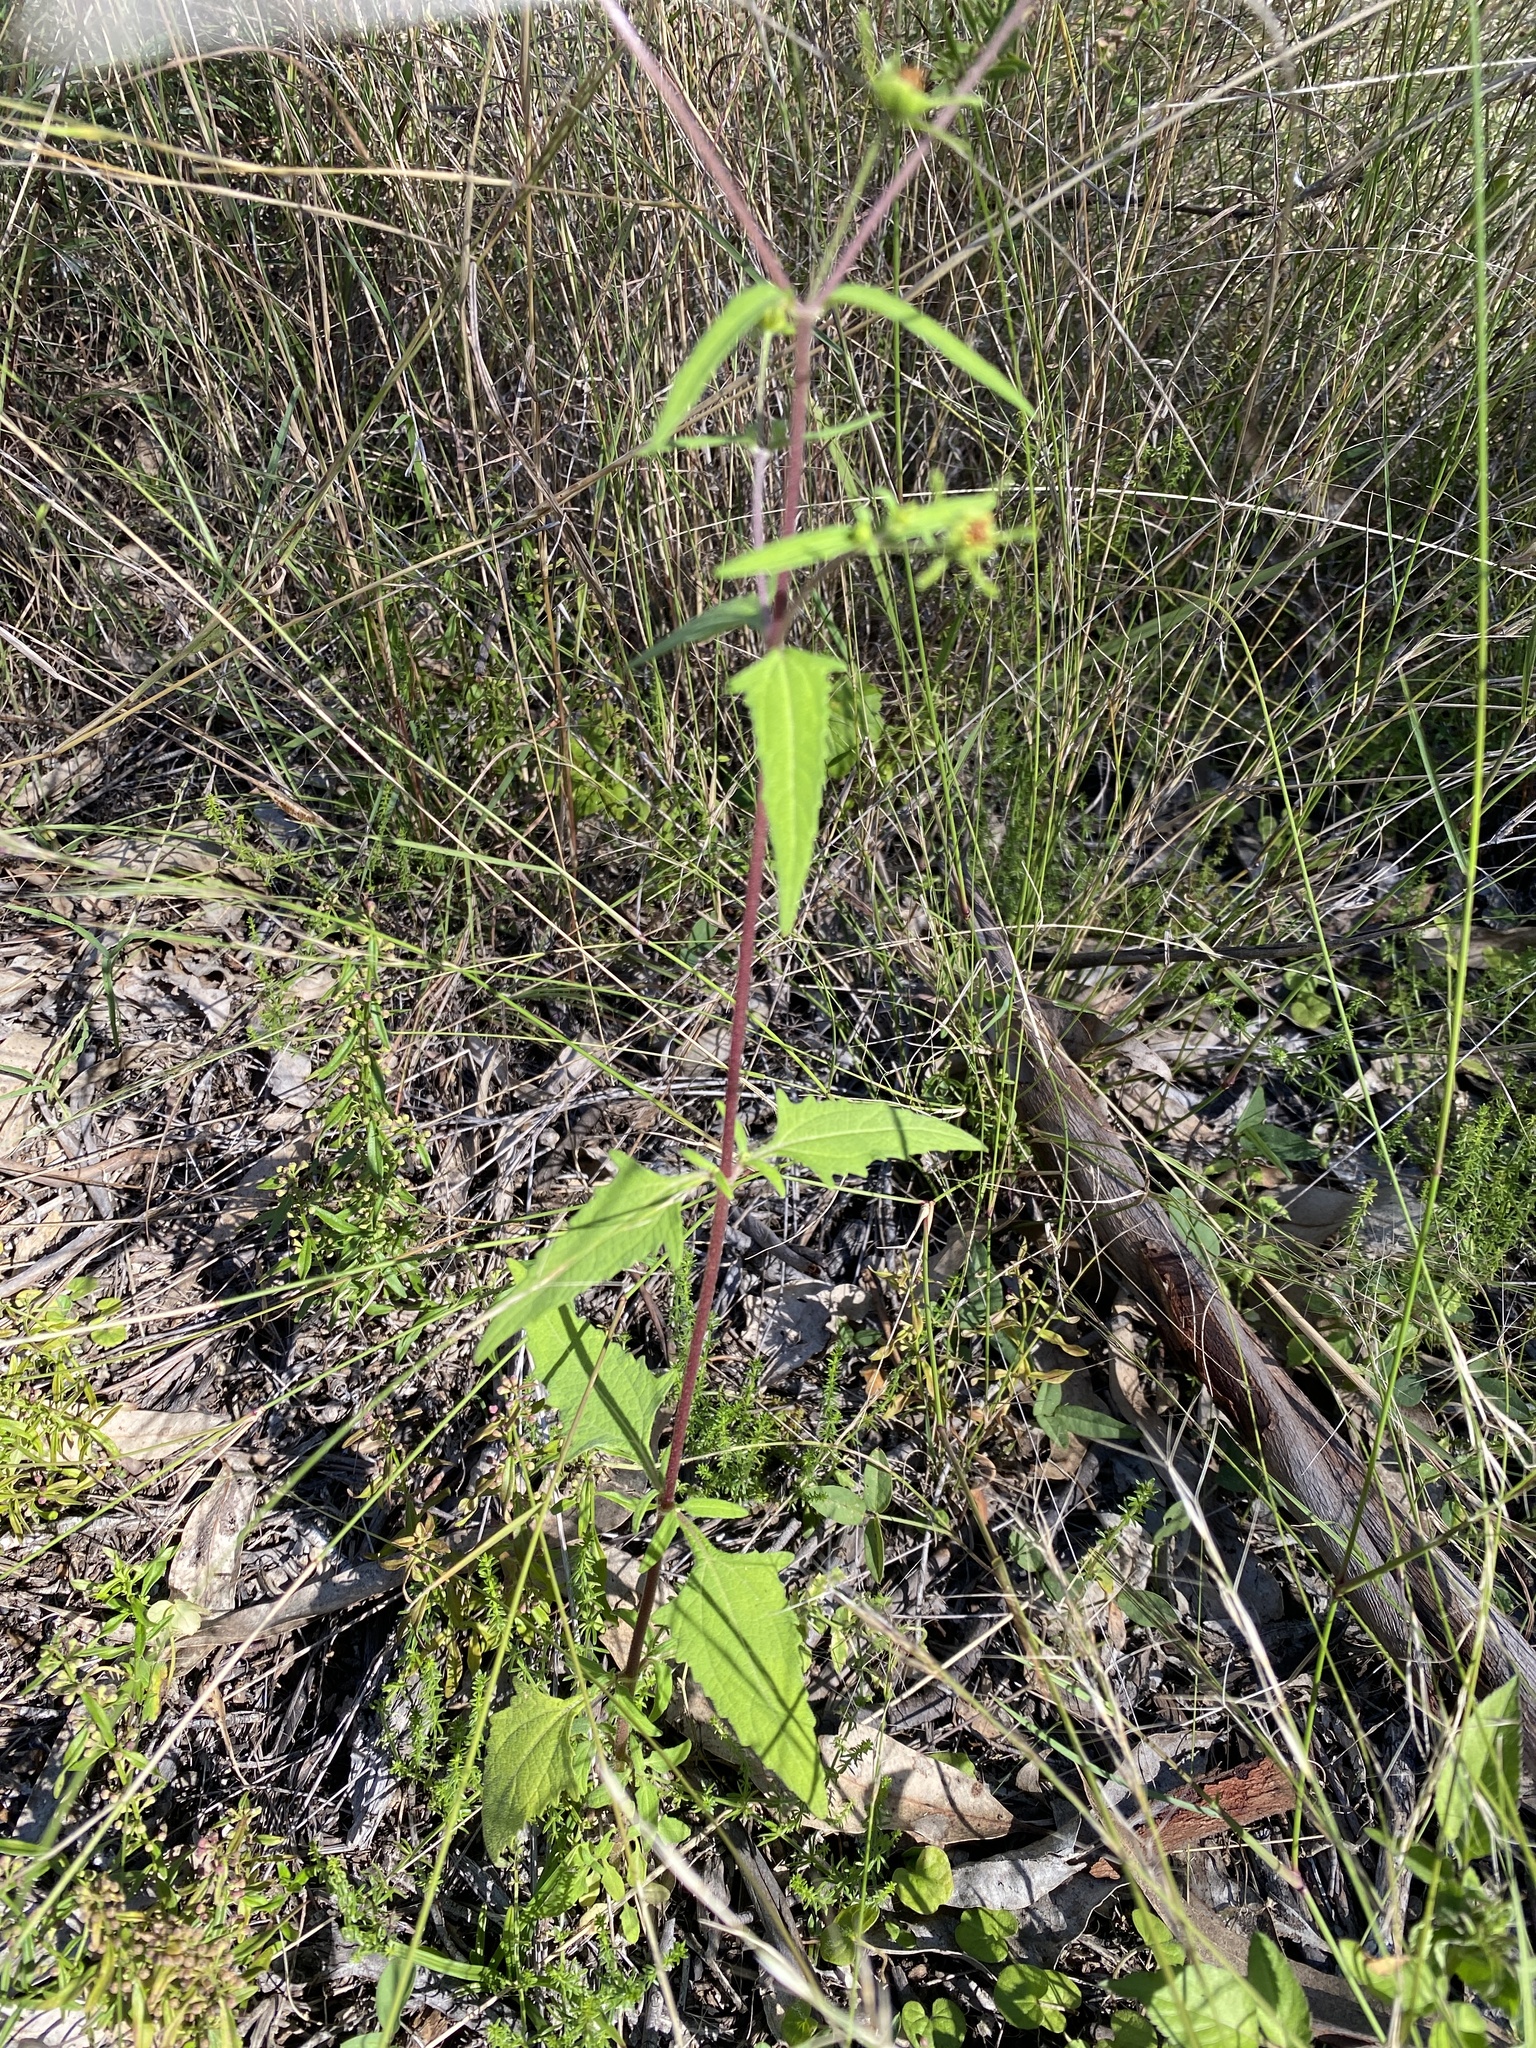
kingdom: Plantae
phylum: Tracheophyta
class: Magnoliopsida
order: Asterales
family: Asteraceae
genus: Sigesbeckia
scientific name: Sigesbeckia orientalis
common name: Eastern st paul's-wort
